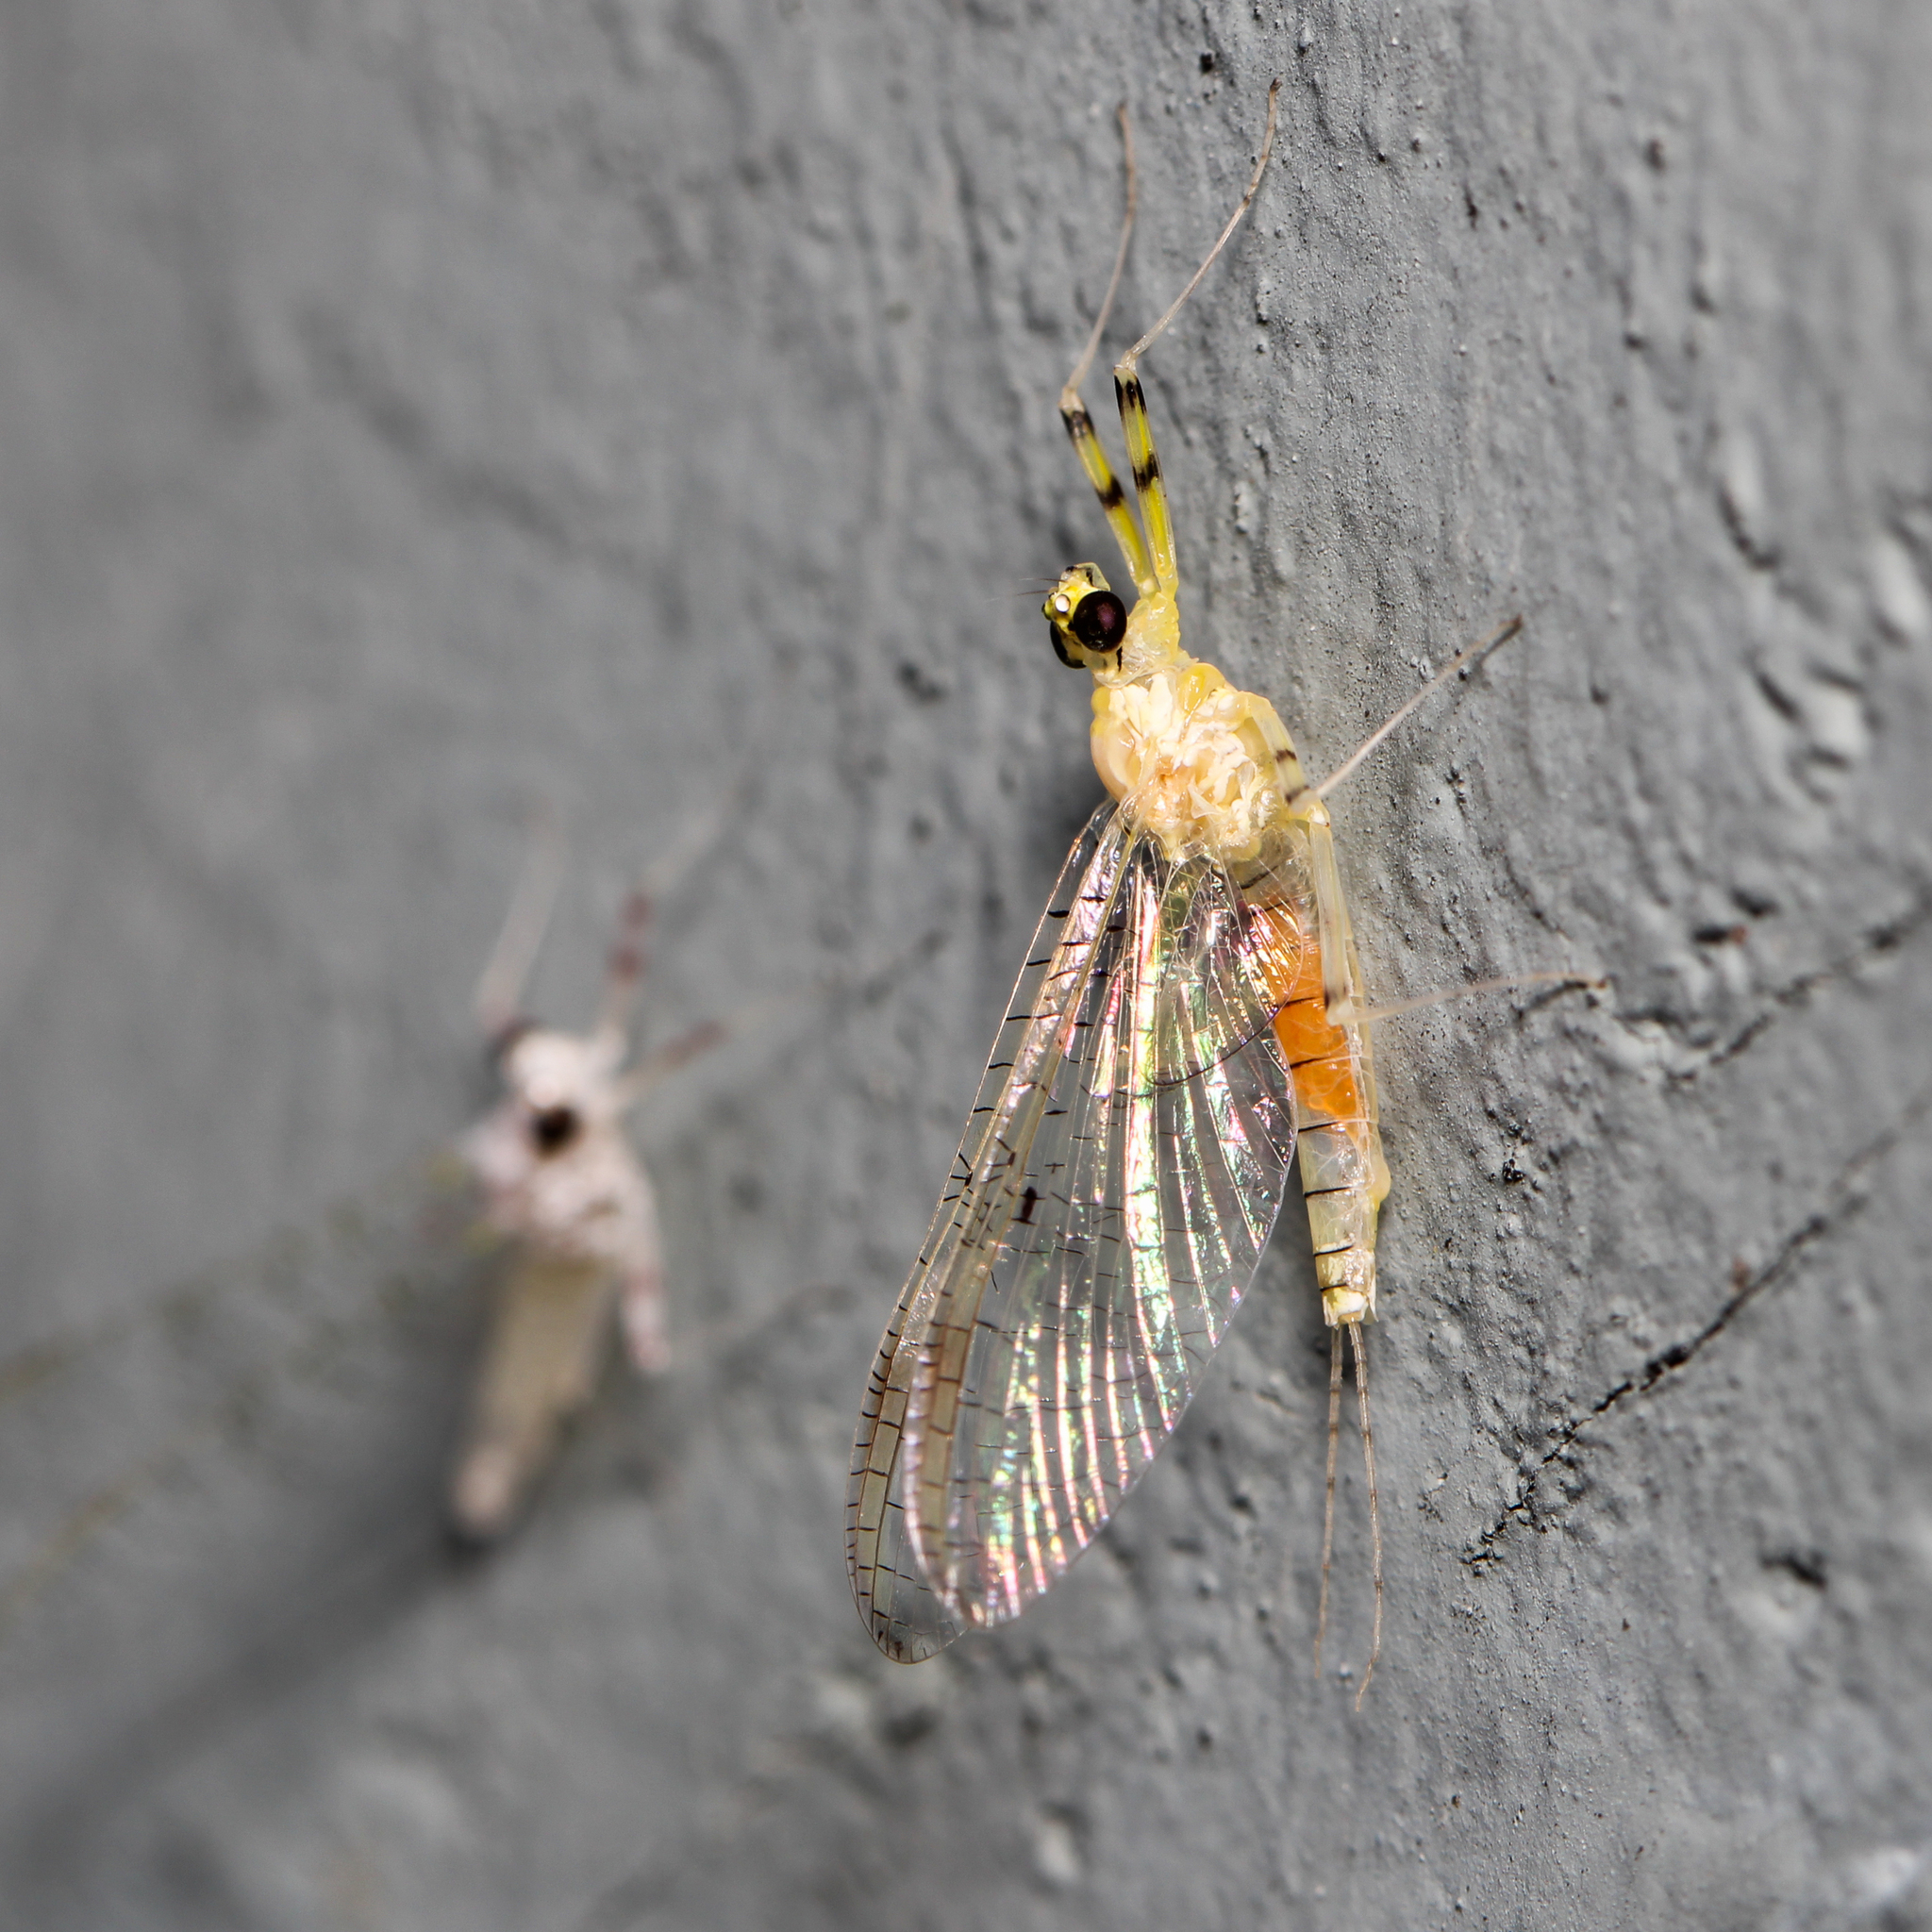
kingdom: Animalia
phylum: Arthropoda
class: Insecta
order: Ephemeroptera
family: Heptageniidae
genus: Stenacron
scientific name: Stenacron interpunctatum
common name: Orange cahill
